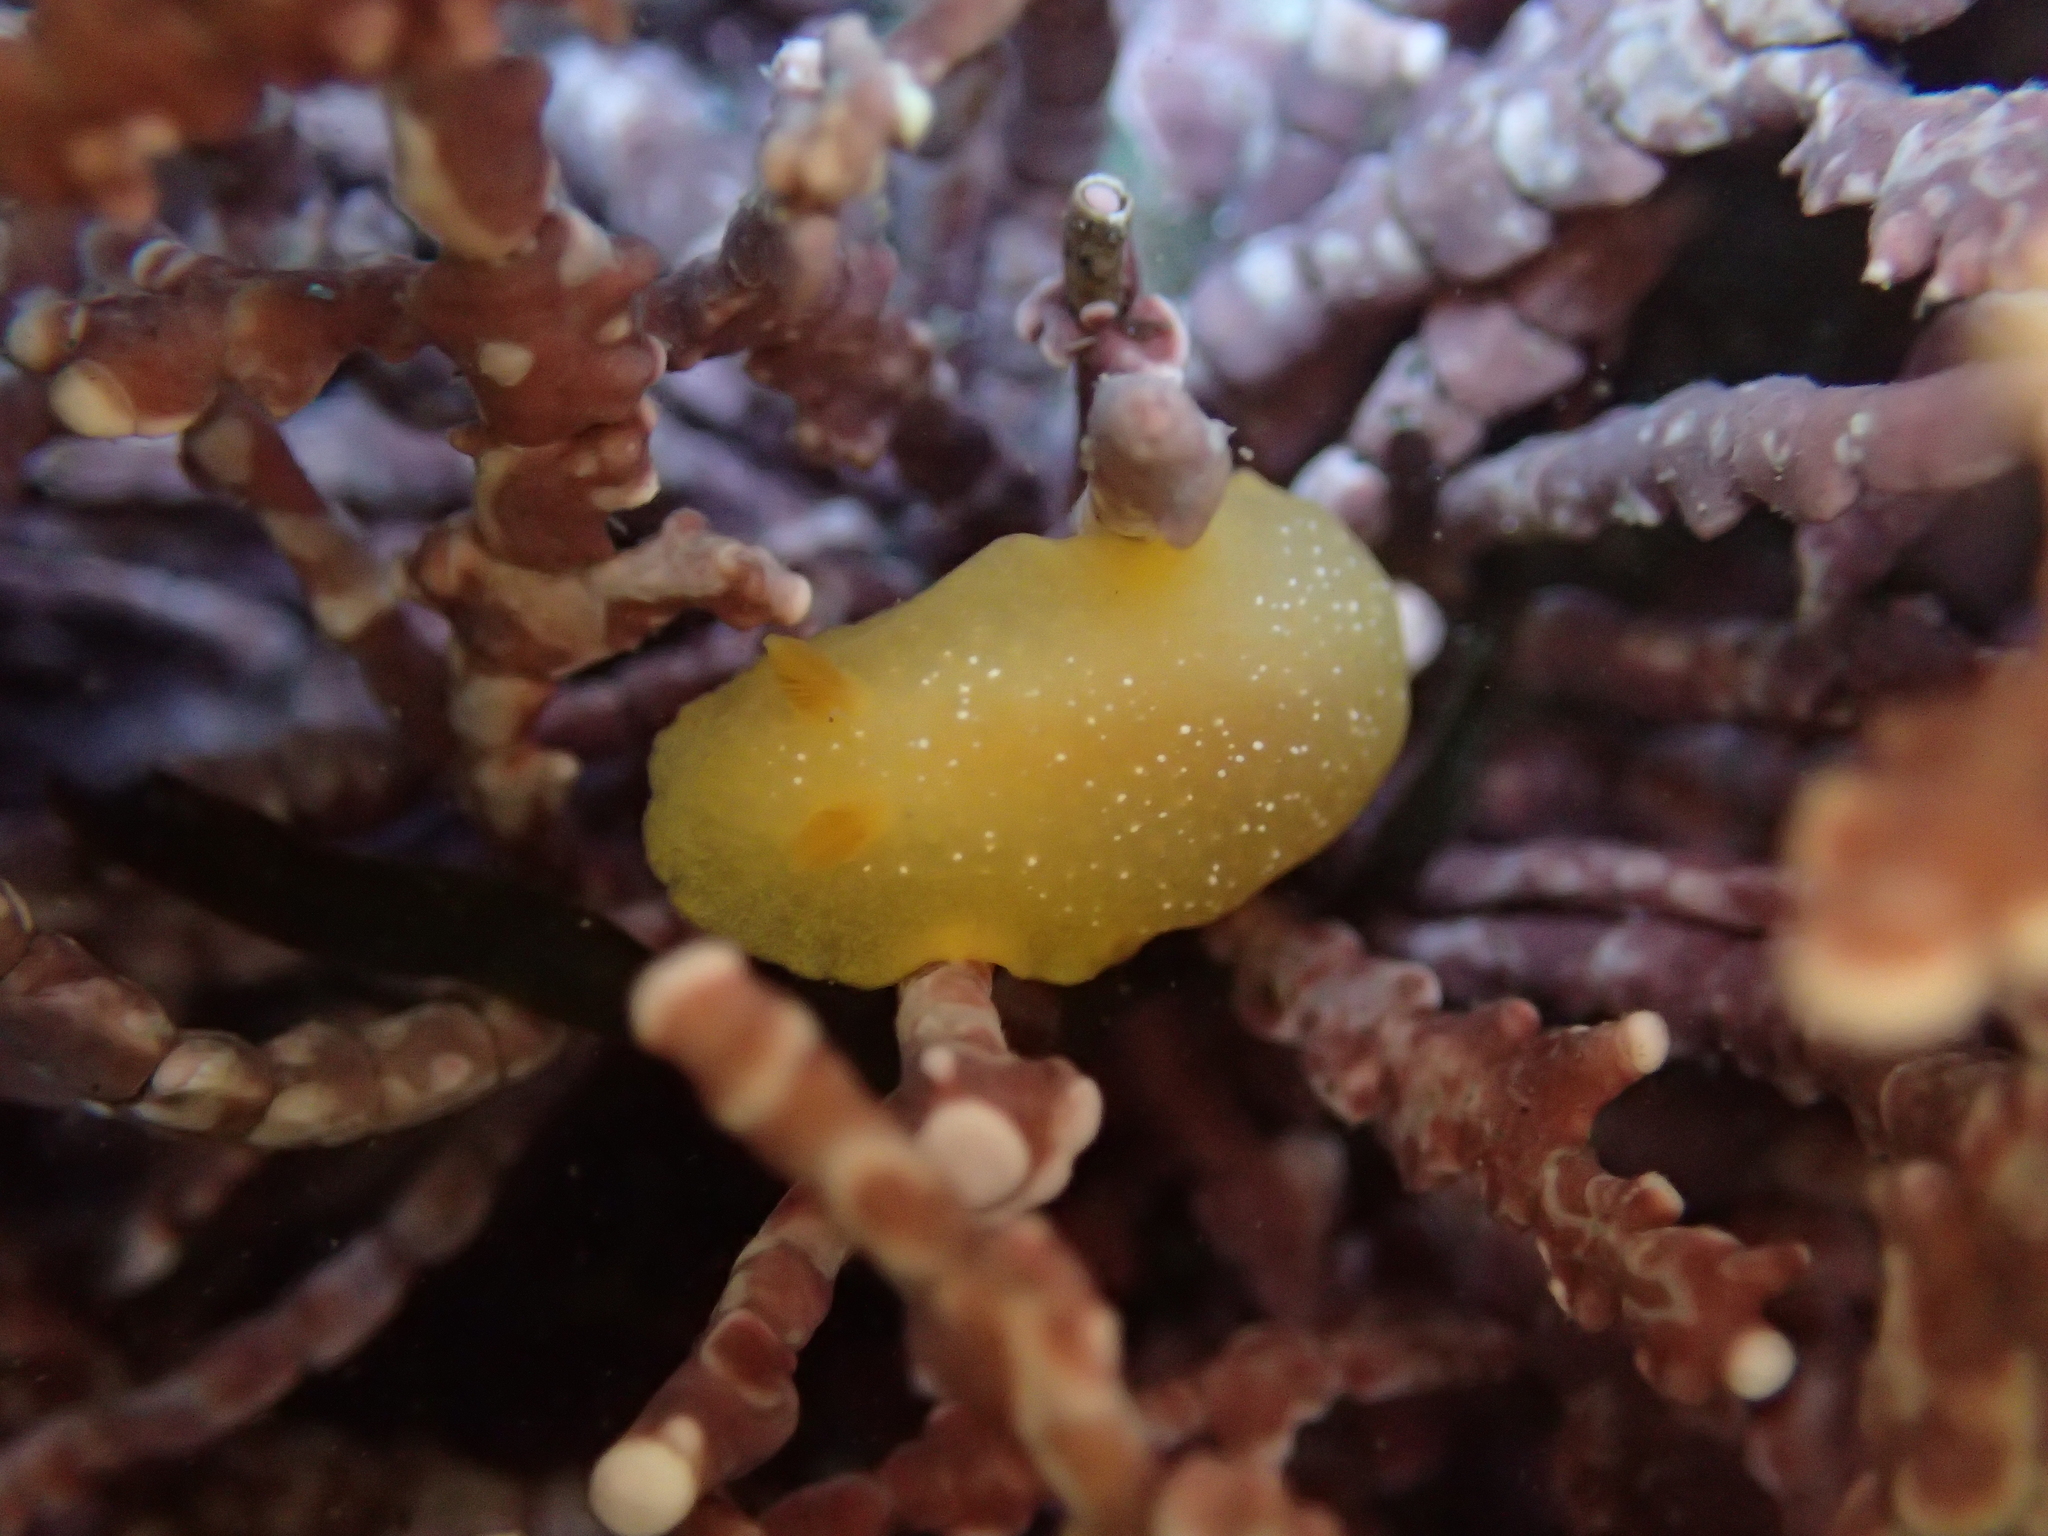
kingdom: Animalia
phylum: Mollusca
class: Gastropoda
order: Nudibranchia
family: Dendrodorididae
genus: Doriopsilla
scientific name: Doriopsilla fulva
